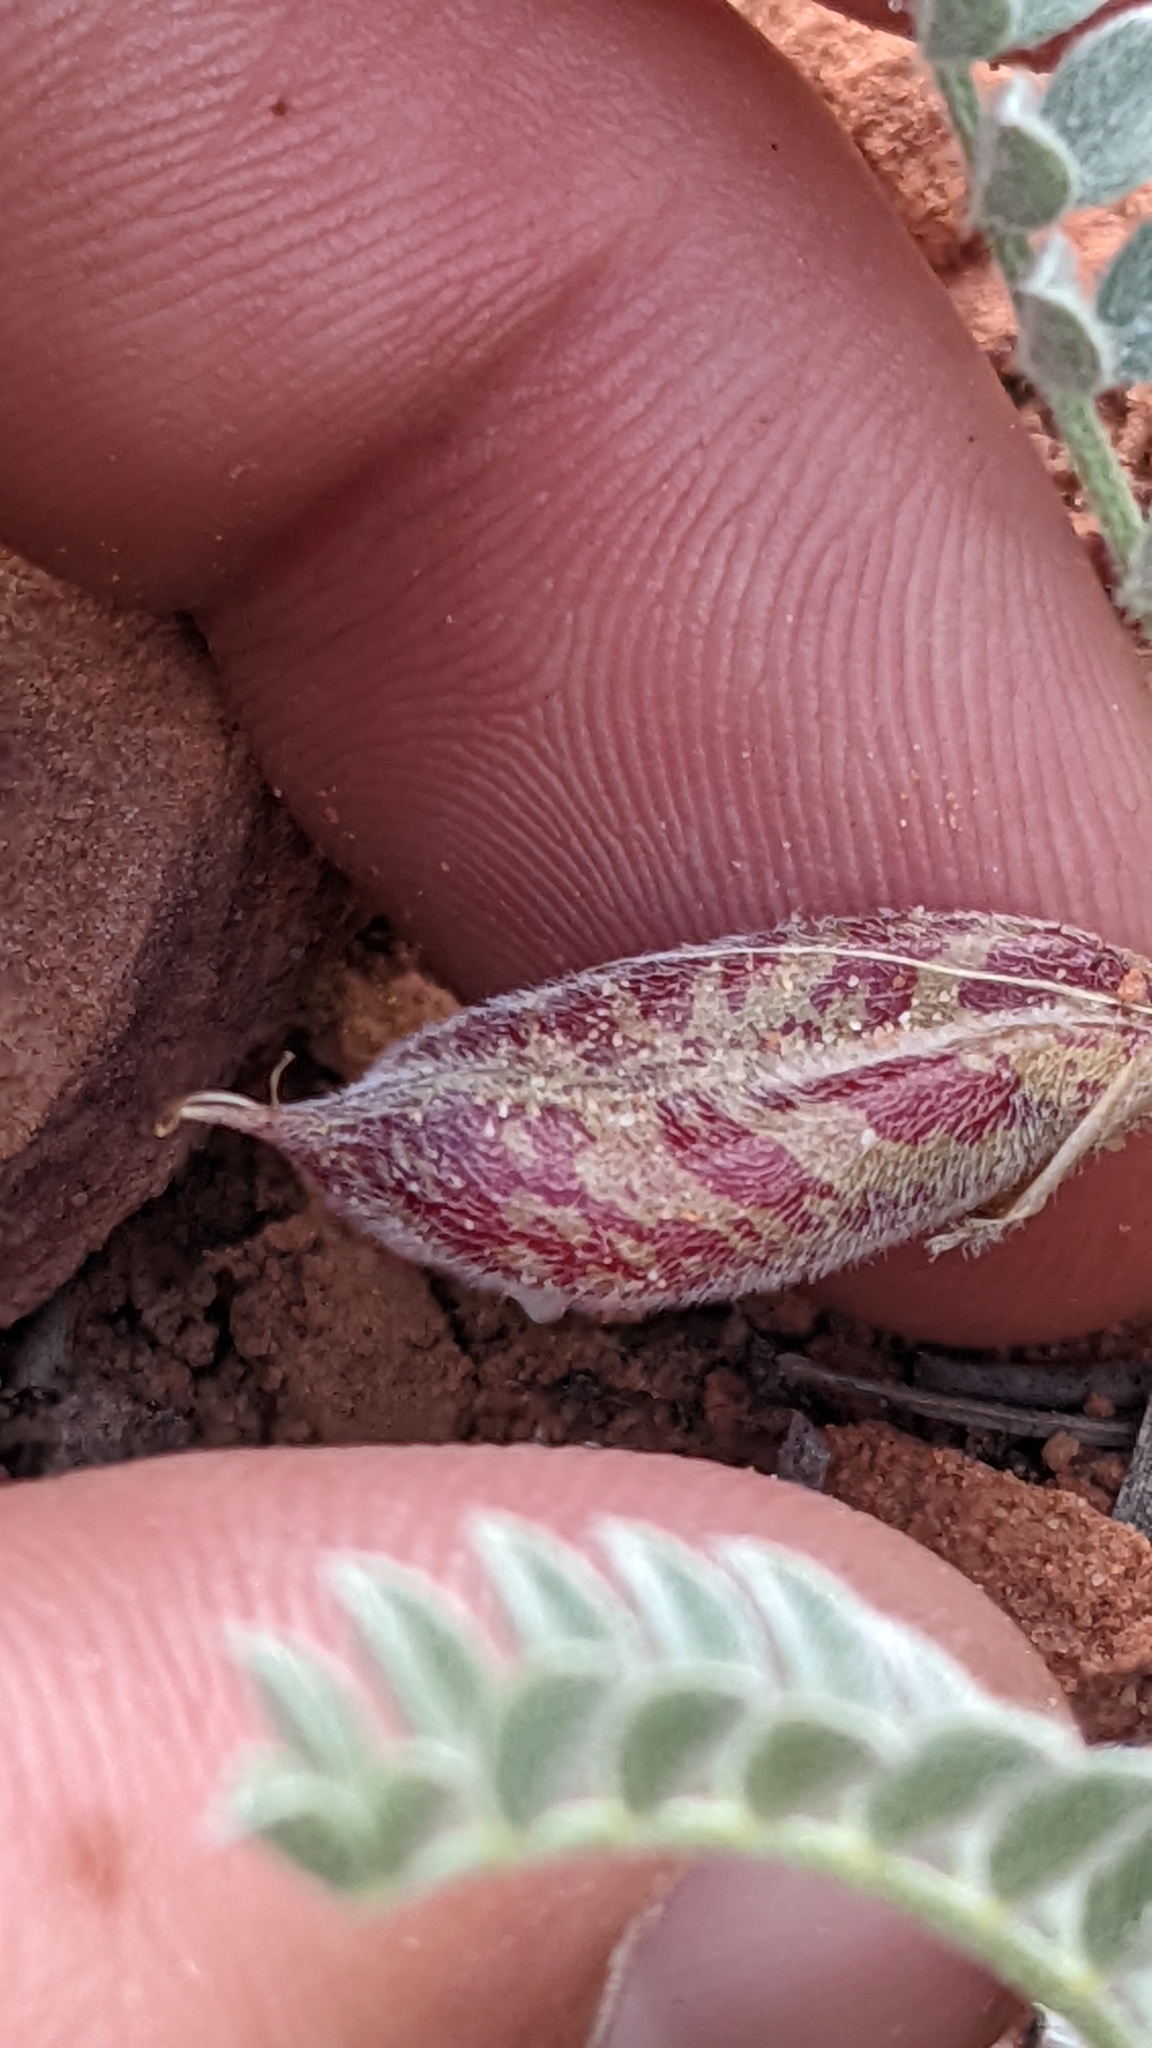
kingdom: Plantae
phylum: Tracheophyta
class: Magnoliopsida
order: Fabales
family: Fabaceae
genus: Astragalus
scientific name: Astragalus zionis
